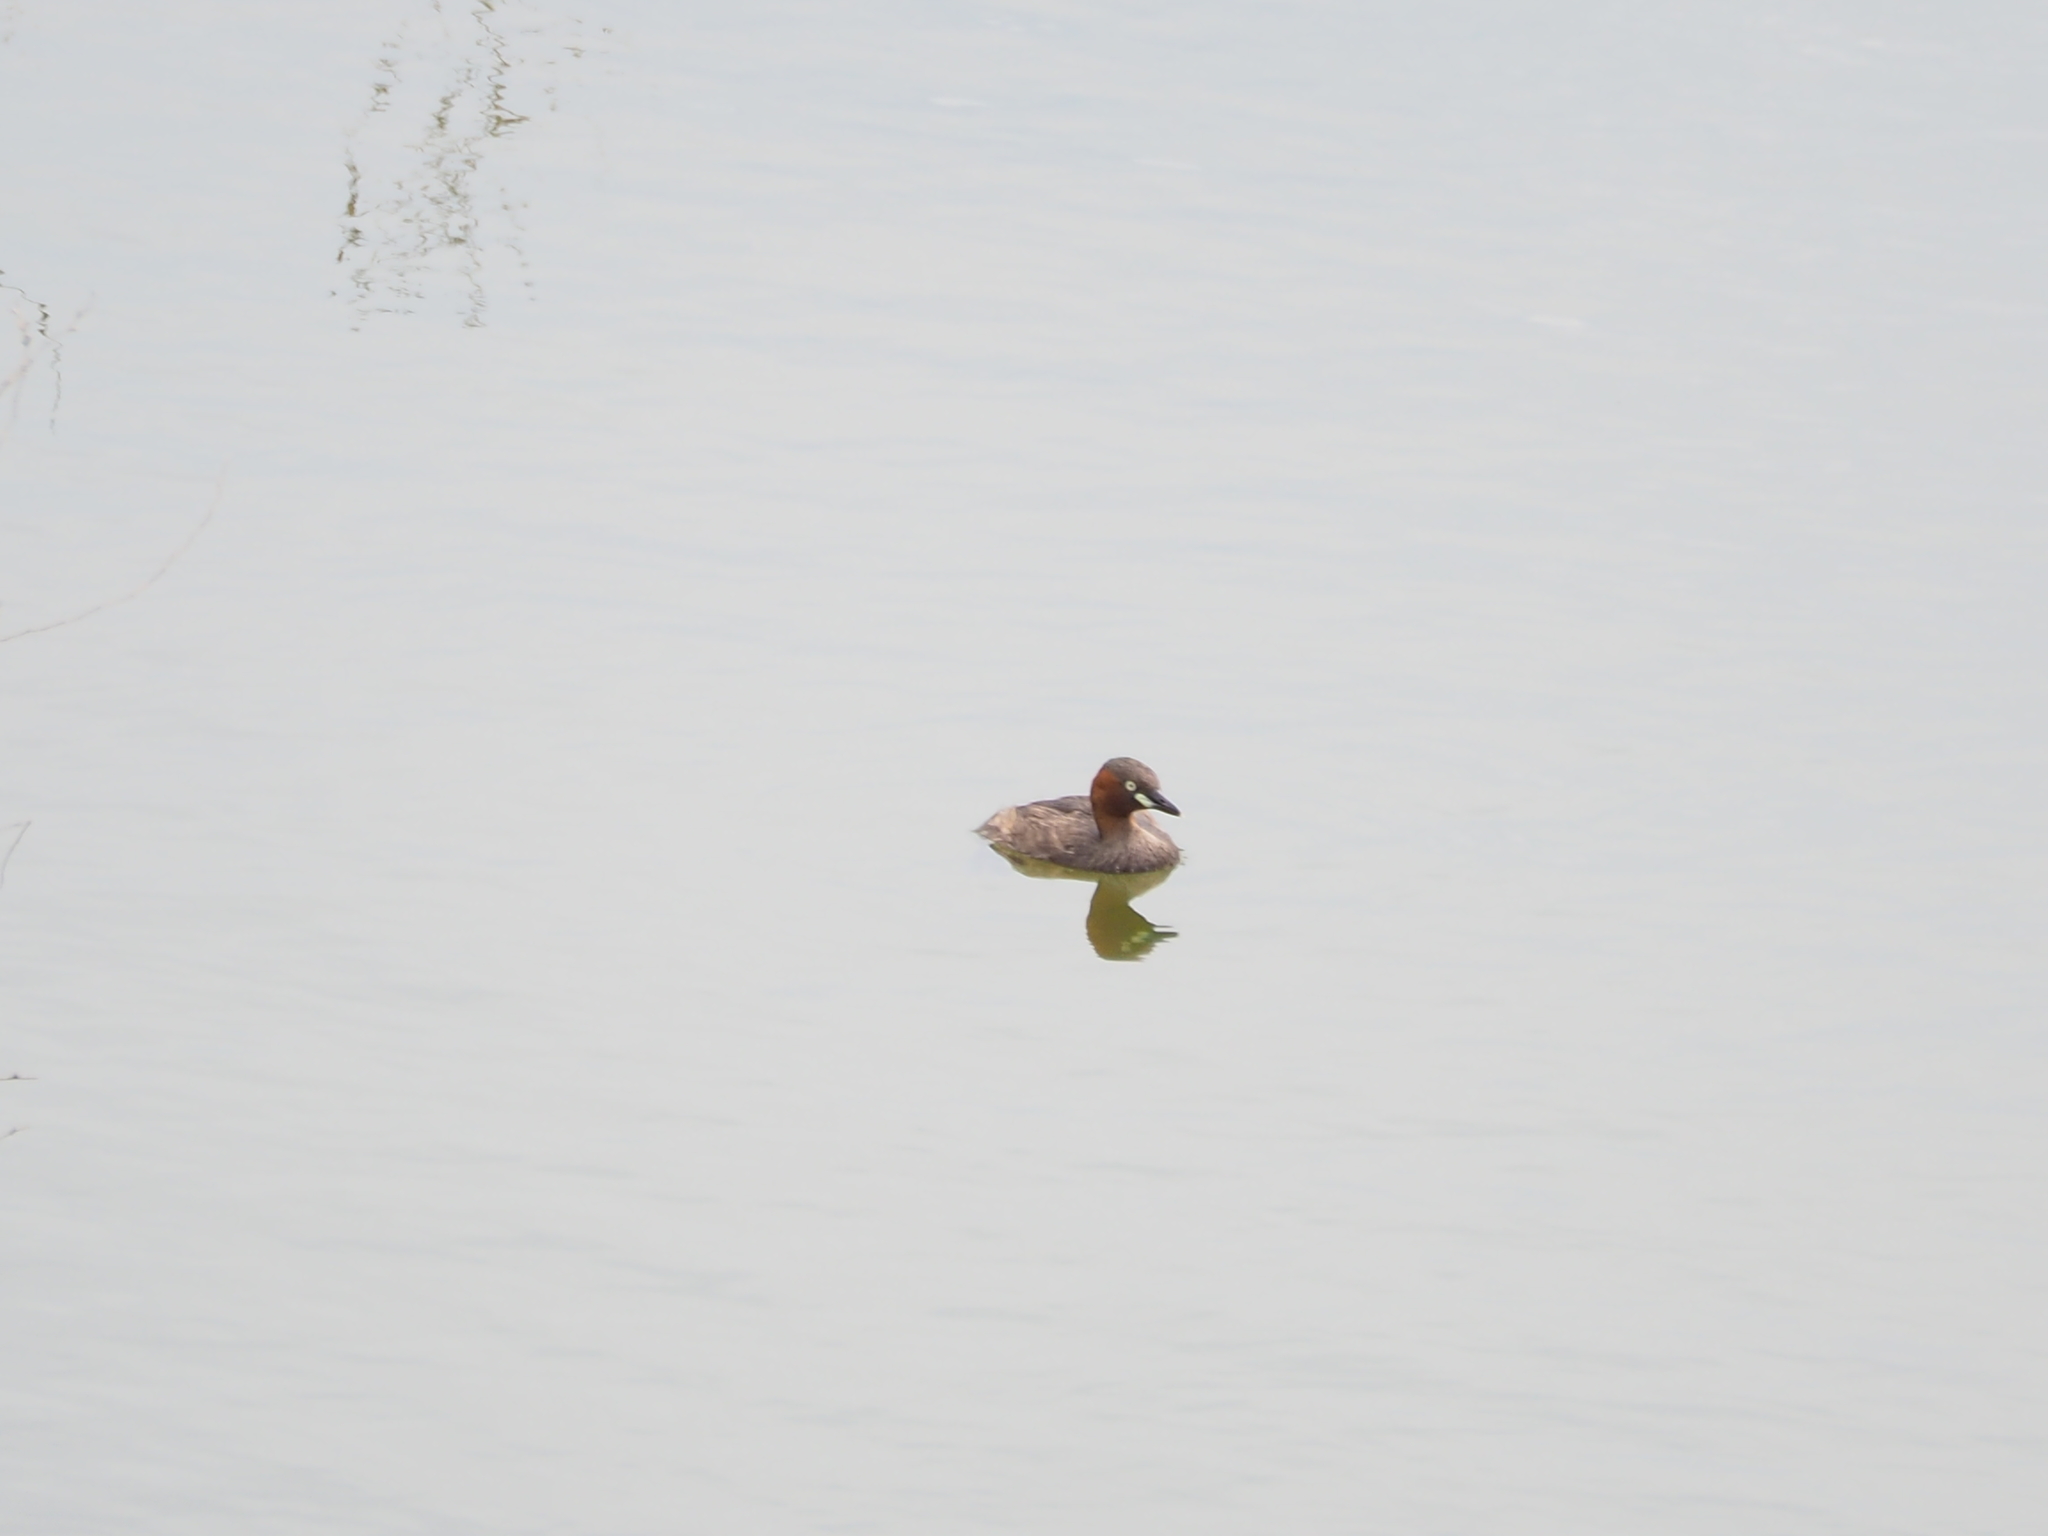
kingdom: Animalia
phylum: Chordata
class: Aves
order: Podicipediformes
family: Podicipedidae
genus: Tachybaptus
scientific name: Tachybaptus ruficollis
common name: Little grebe
